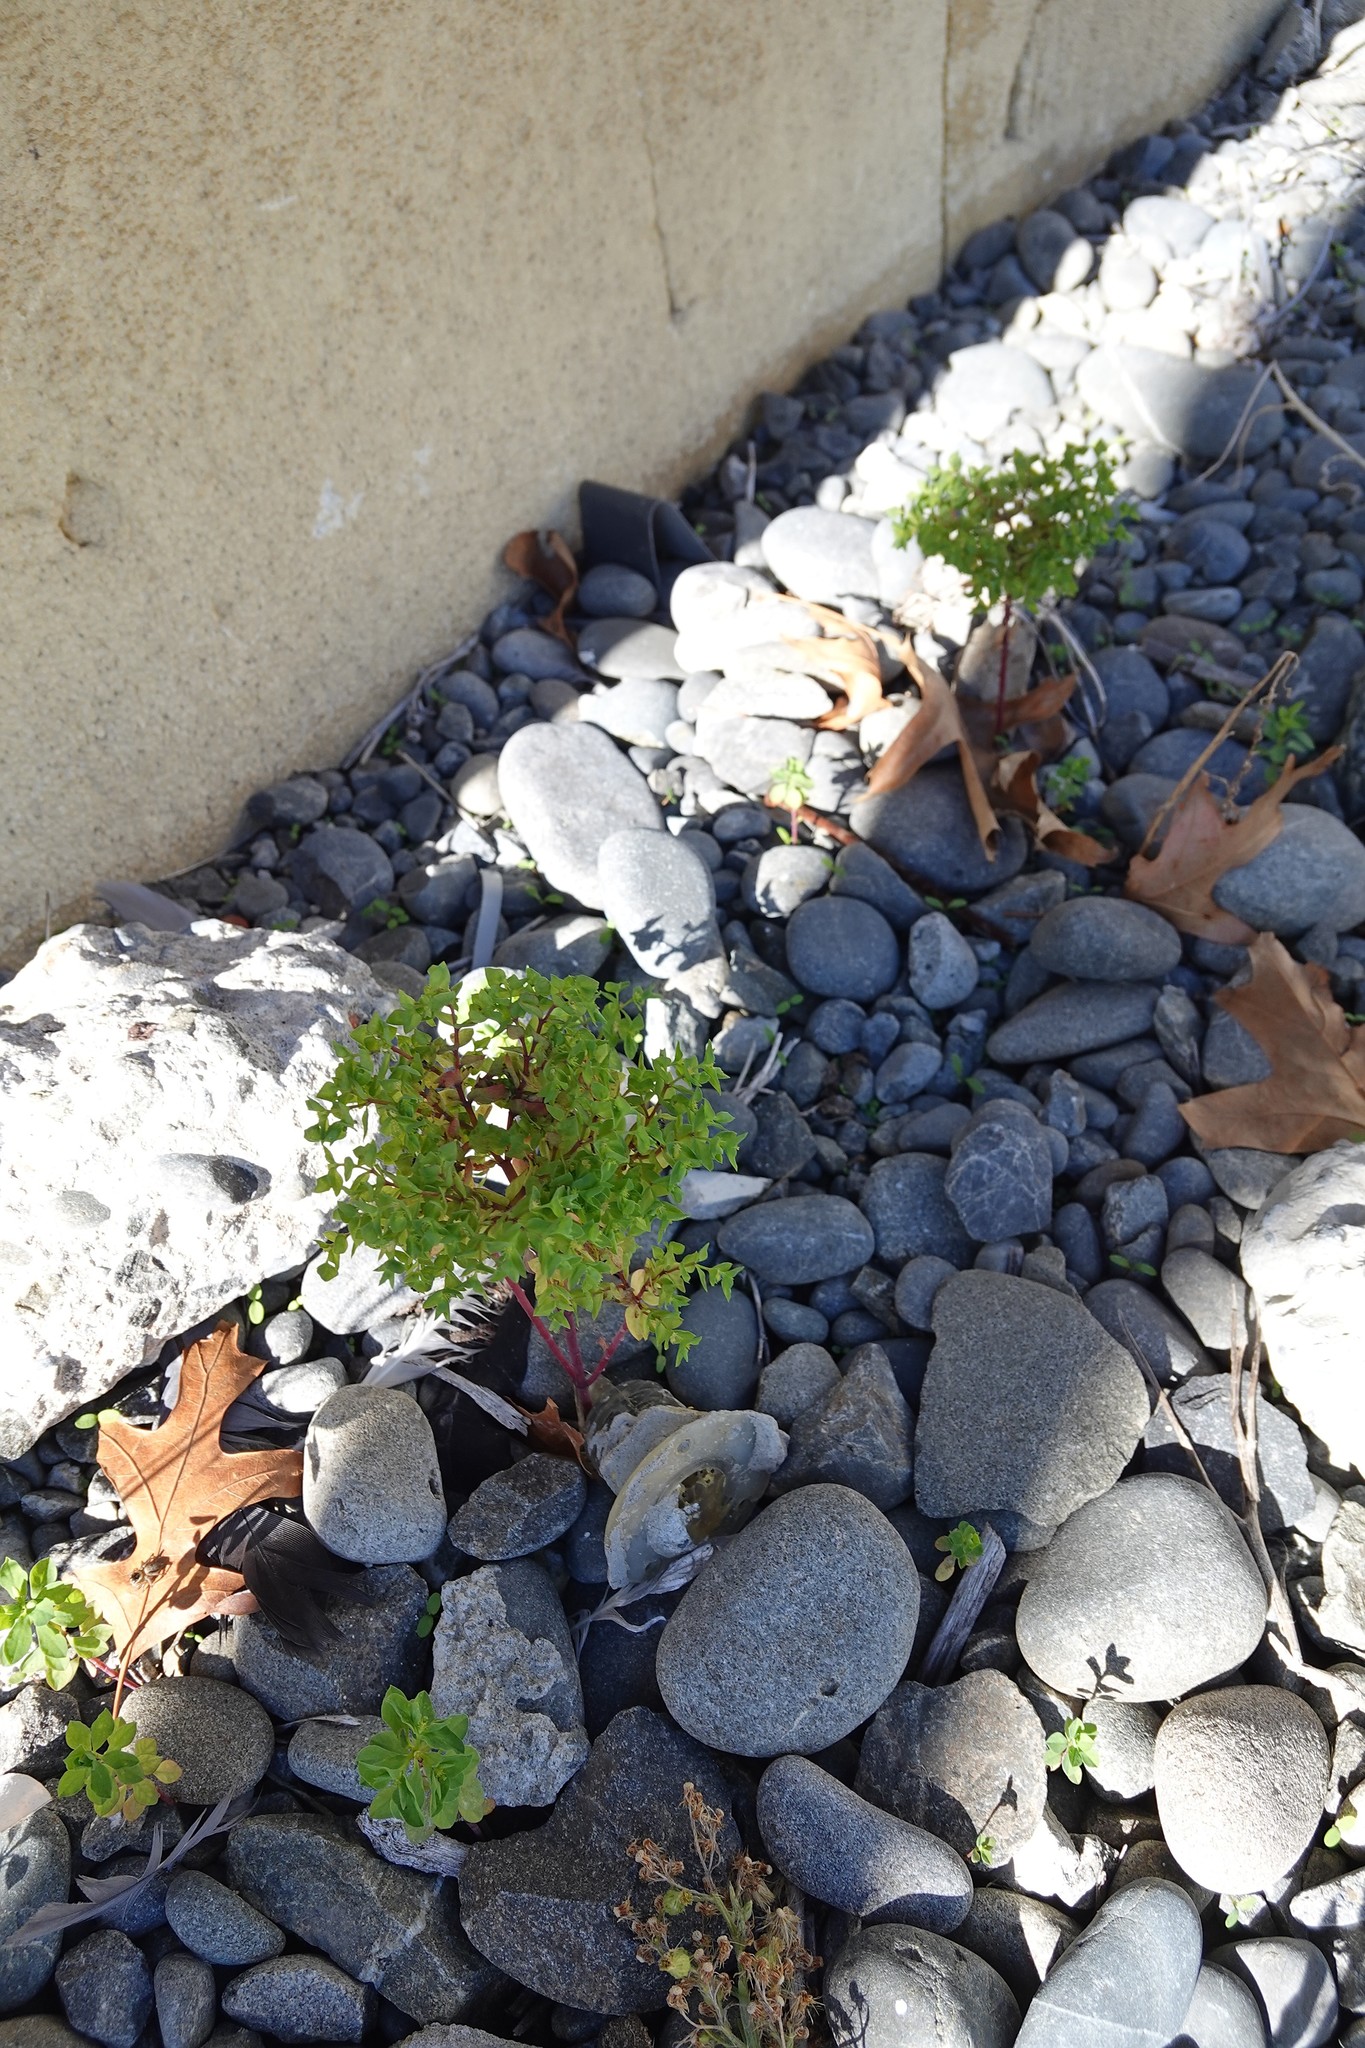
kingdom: Plantae
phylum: Tracheophyta
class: Magnoliopsida
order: Malpighiales
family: Euphorbiaceae
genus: Euphorbia
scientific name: Euphorbia peplus
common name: Petty spurge
